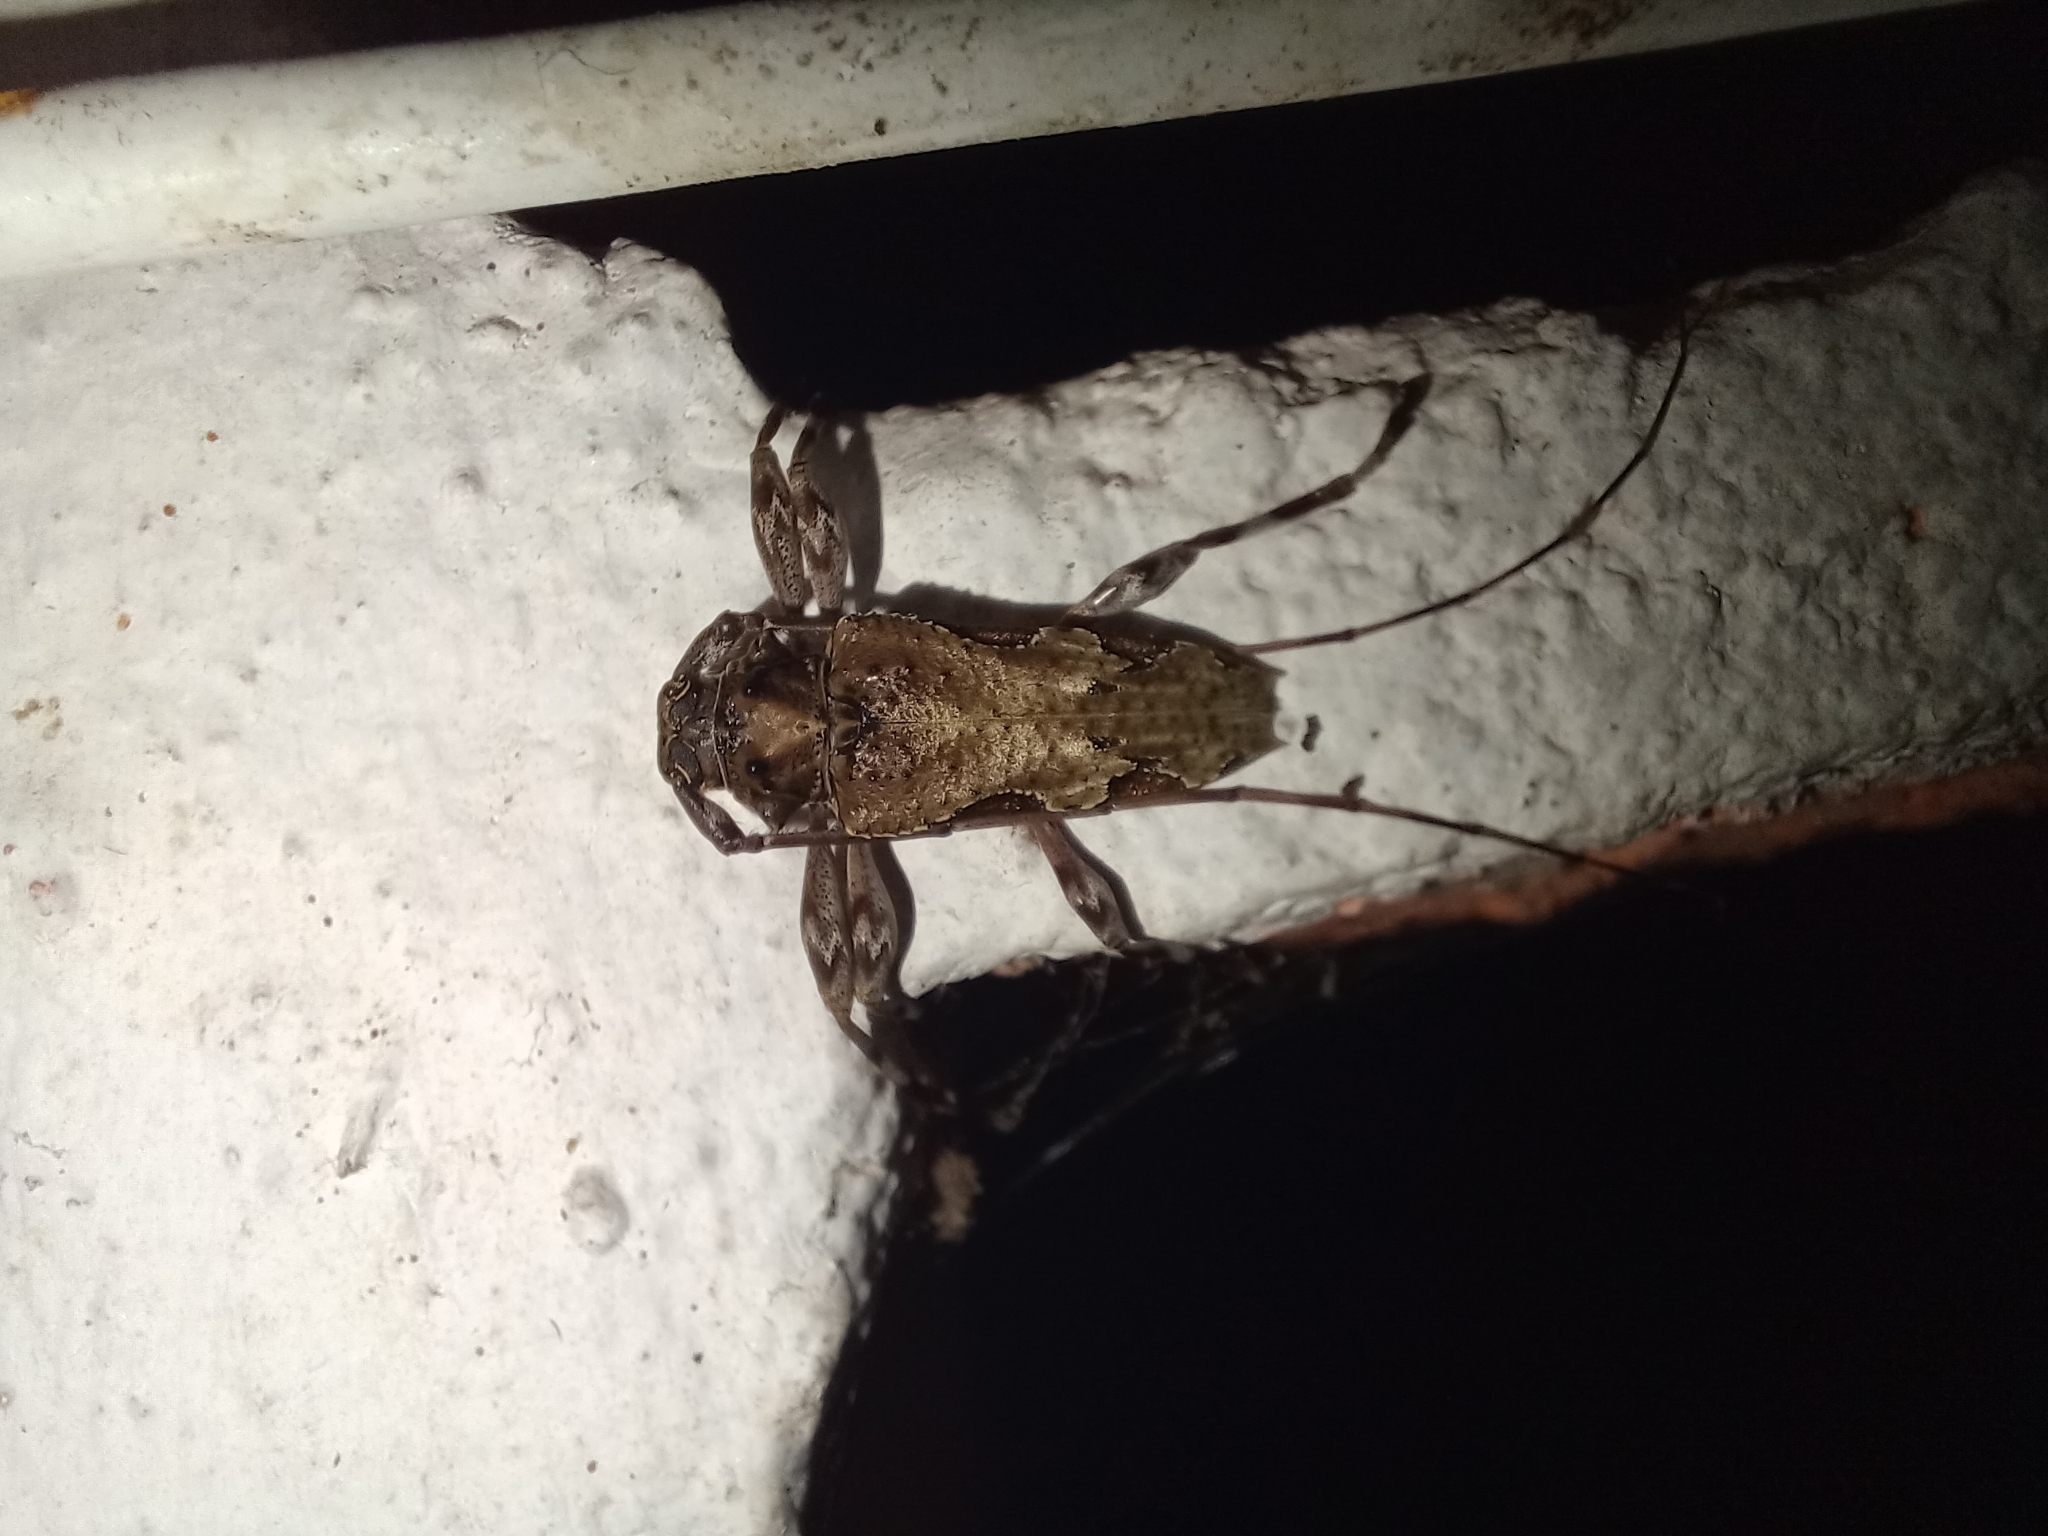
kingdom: Animalia
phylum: Arthropoda
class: Insecta
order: Coleoptera
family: Cerambycidae
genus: Oreodera
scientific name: Oreodera bituberculata
